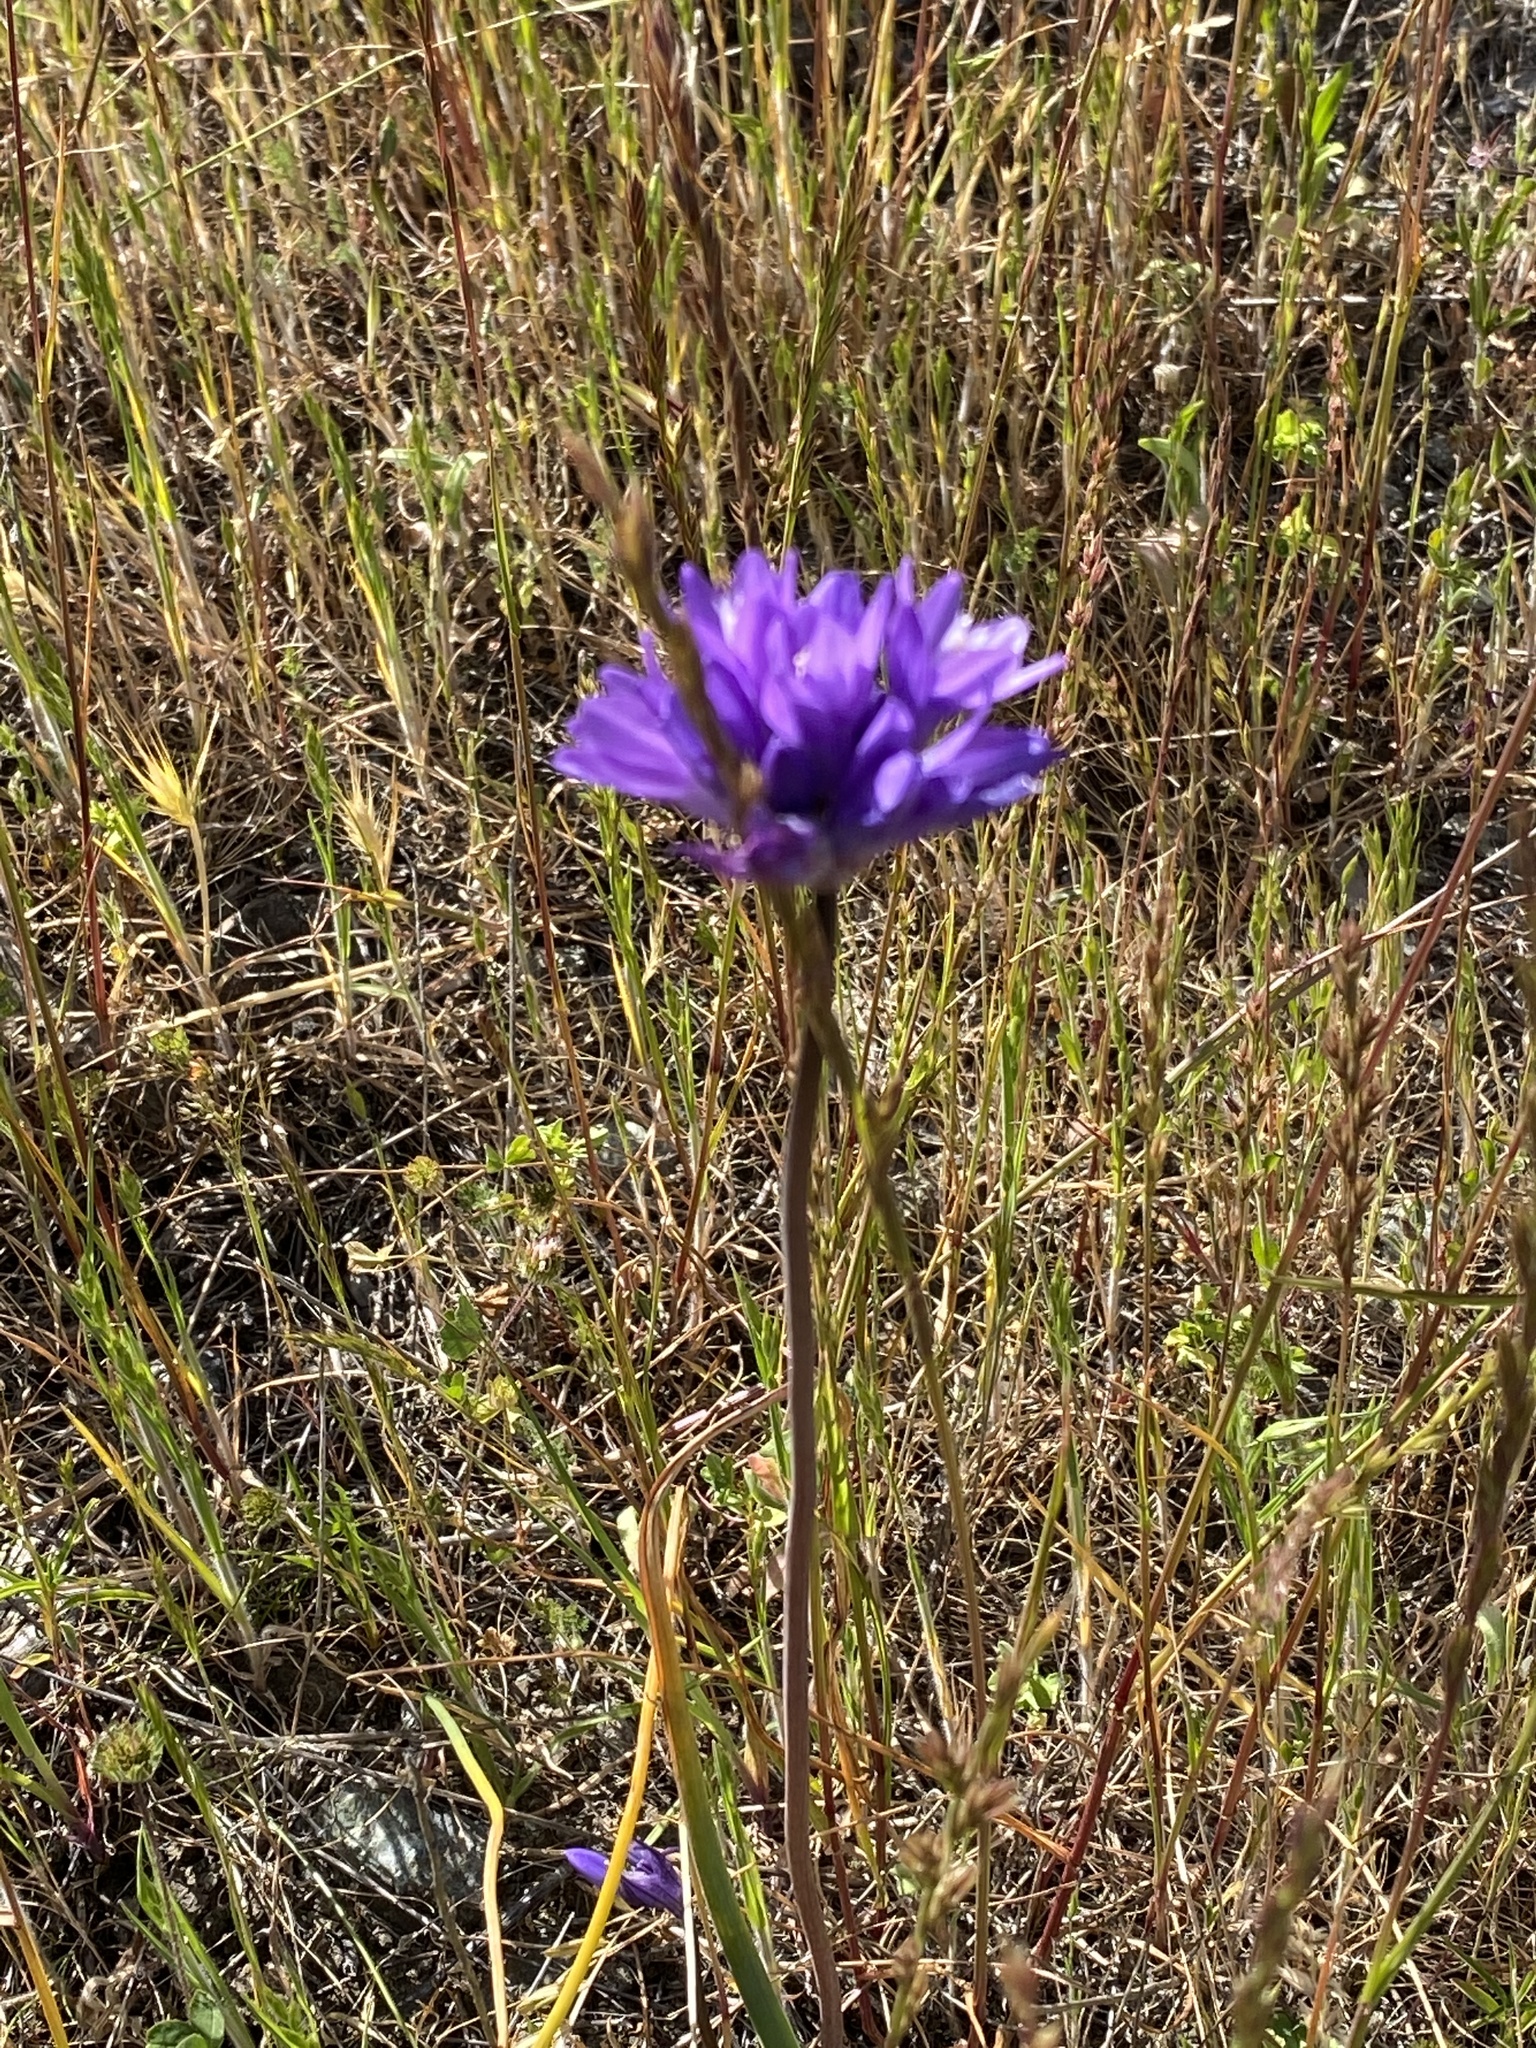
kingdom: Plantae
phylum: Tracheophyta
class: Liliopsida
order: Asparagales
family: Asparagaceae
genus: Dipterostemon
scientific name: Dipterostemon capitatus
